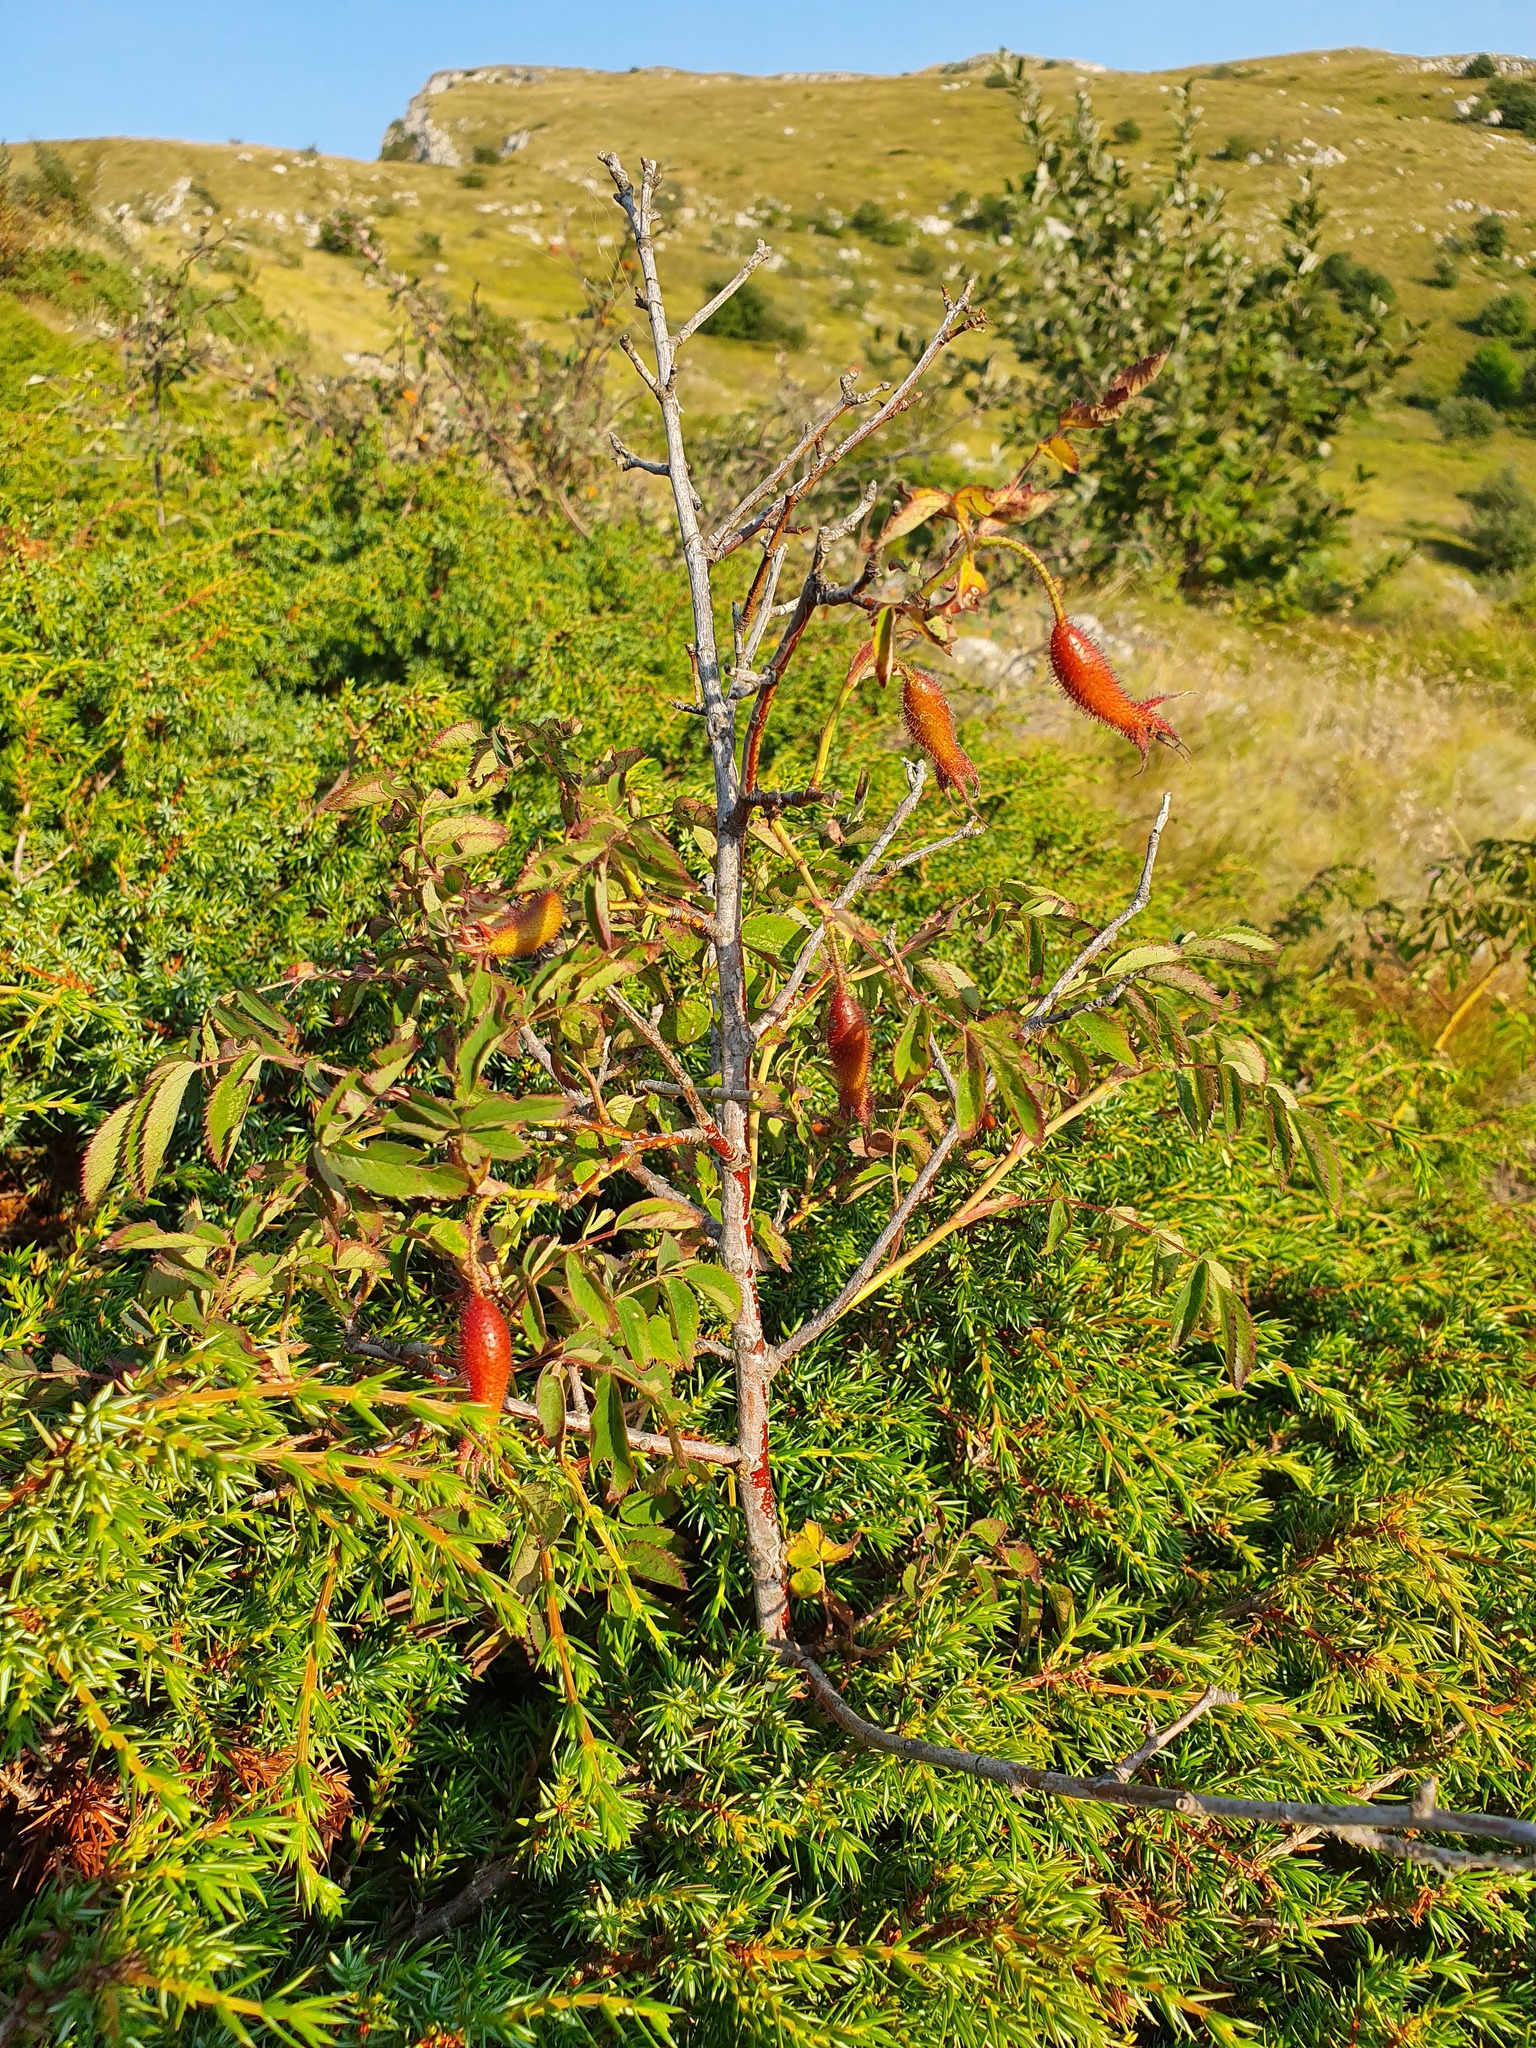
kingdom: Plantae
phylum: Tracheophyta
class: Magnoliopsida
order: Rosales
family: Rosaceae
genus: Rosa
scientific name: Rosa pendulina
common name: Alpine rose
